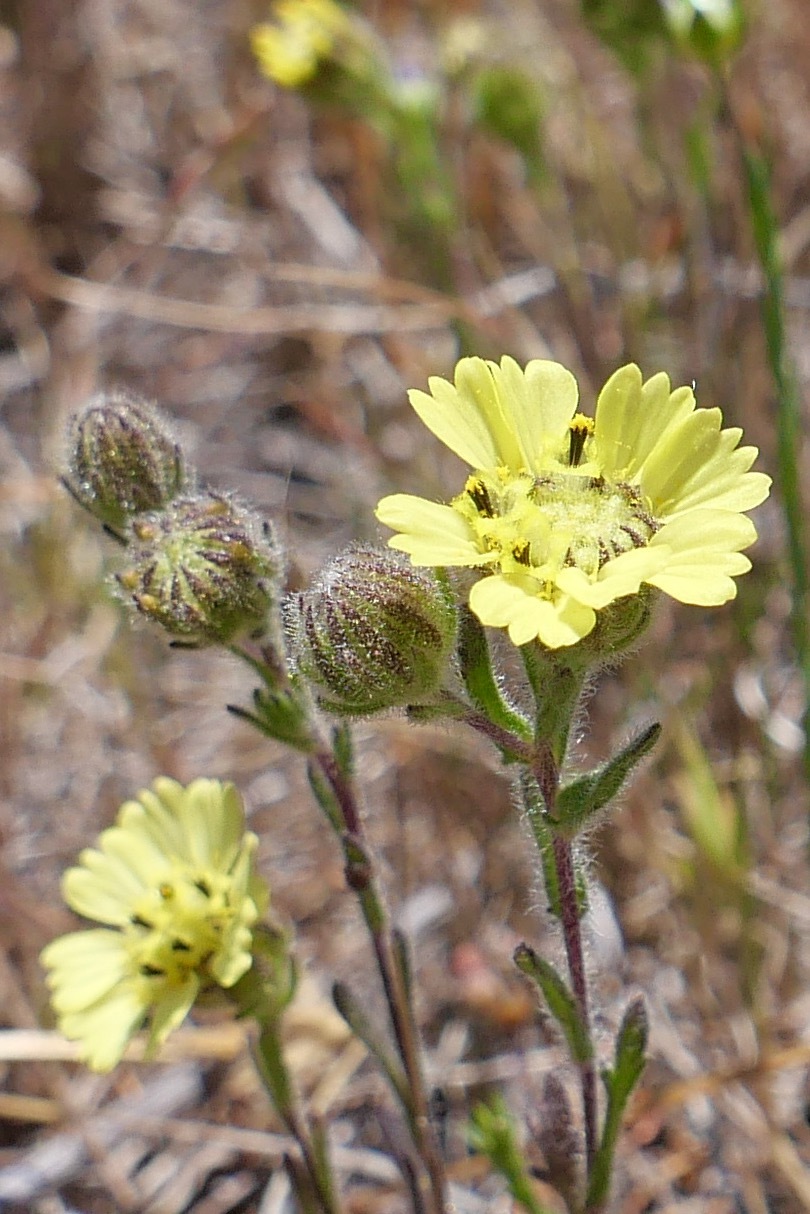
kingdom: Plantae
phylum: Tracheophyta
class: Magnoliopsida
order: Asterales
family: Asteraceae
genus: Deinandra
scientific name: Deinandra increscens
